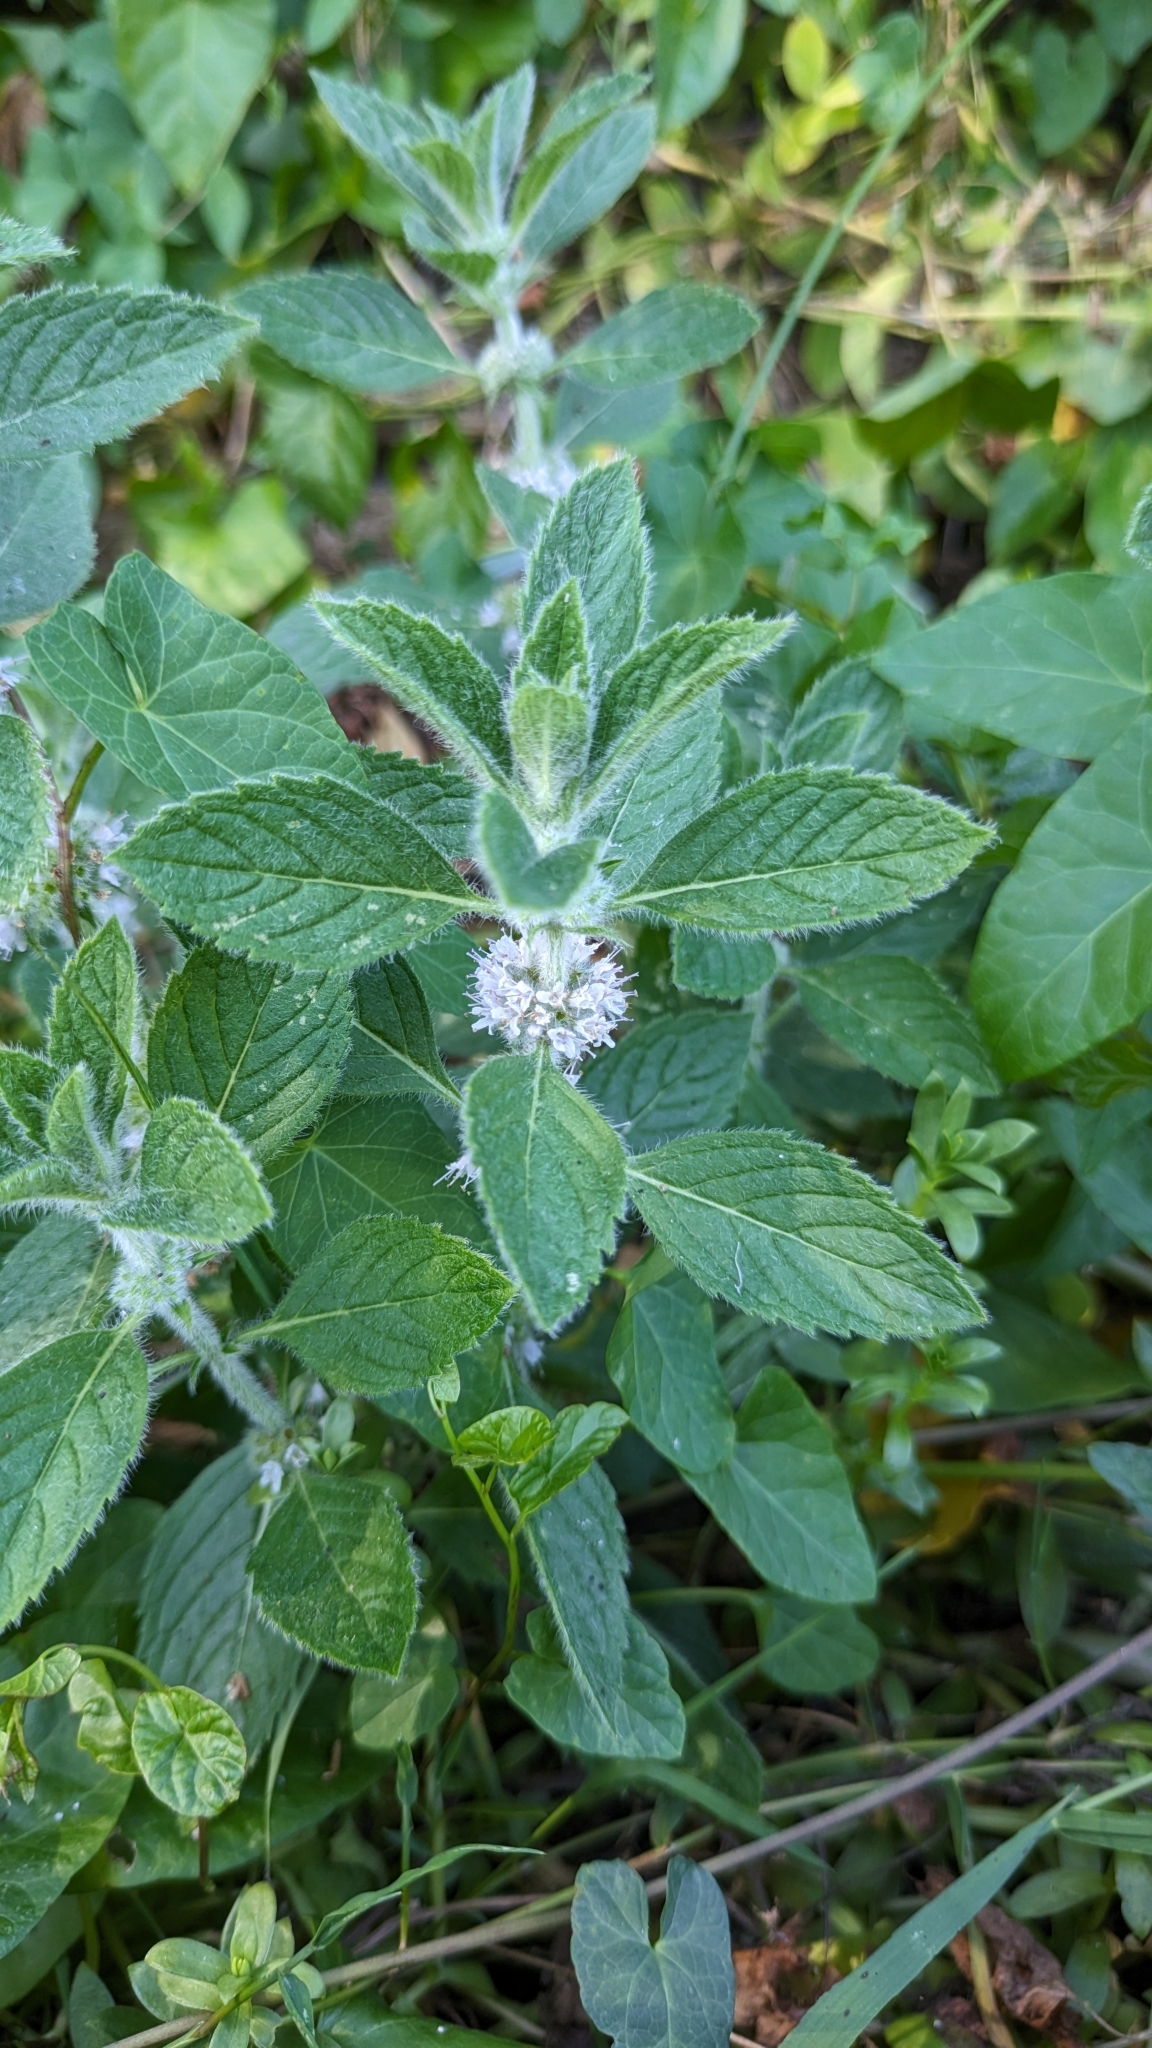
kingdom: Plantae
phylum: Tracheophyta
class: Magnoliopsida
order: Lamiales
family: Lamiaceae
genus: Mentha
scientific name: Mentha canadensis
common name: American corn mint
